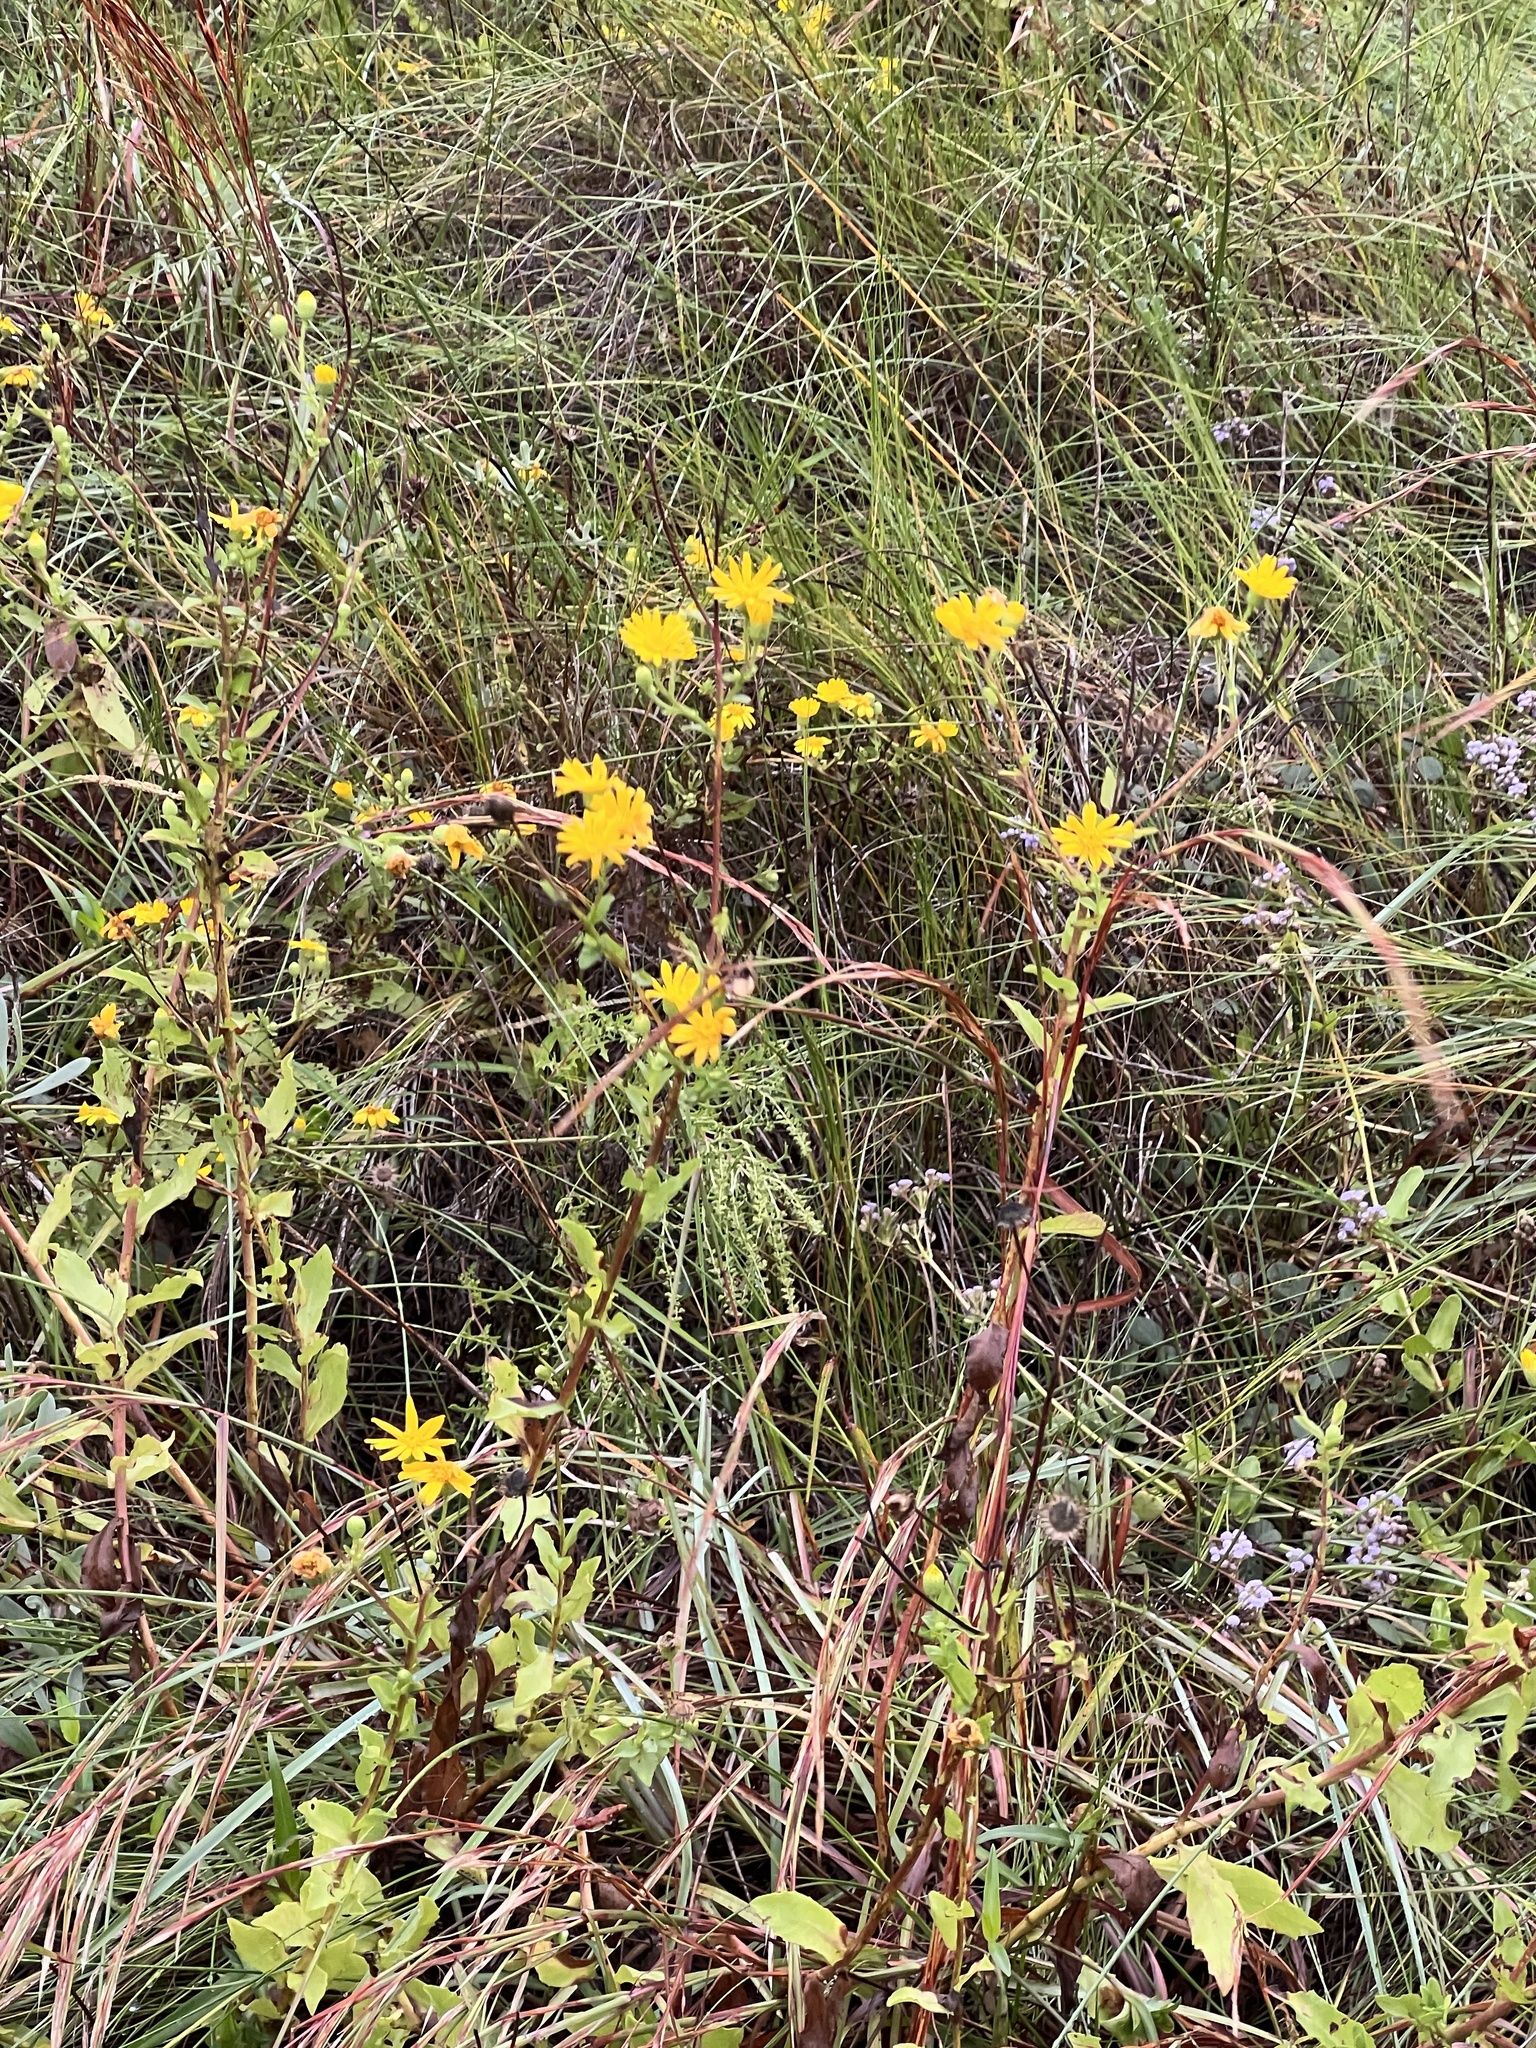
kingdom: Plantae
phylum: Tracheophyta
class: Magnoliopsida
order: Asterales
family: Asteraceae
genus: Heterotheca
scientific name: Heterotheca subaxillaris
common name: Camphorweed
